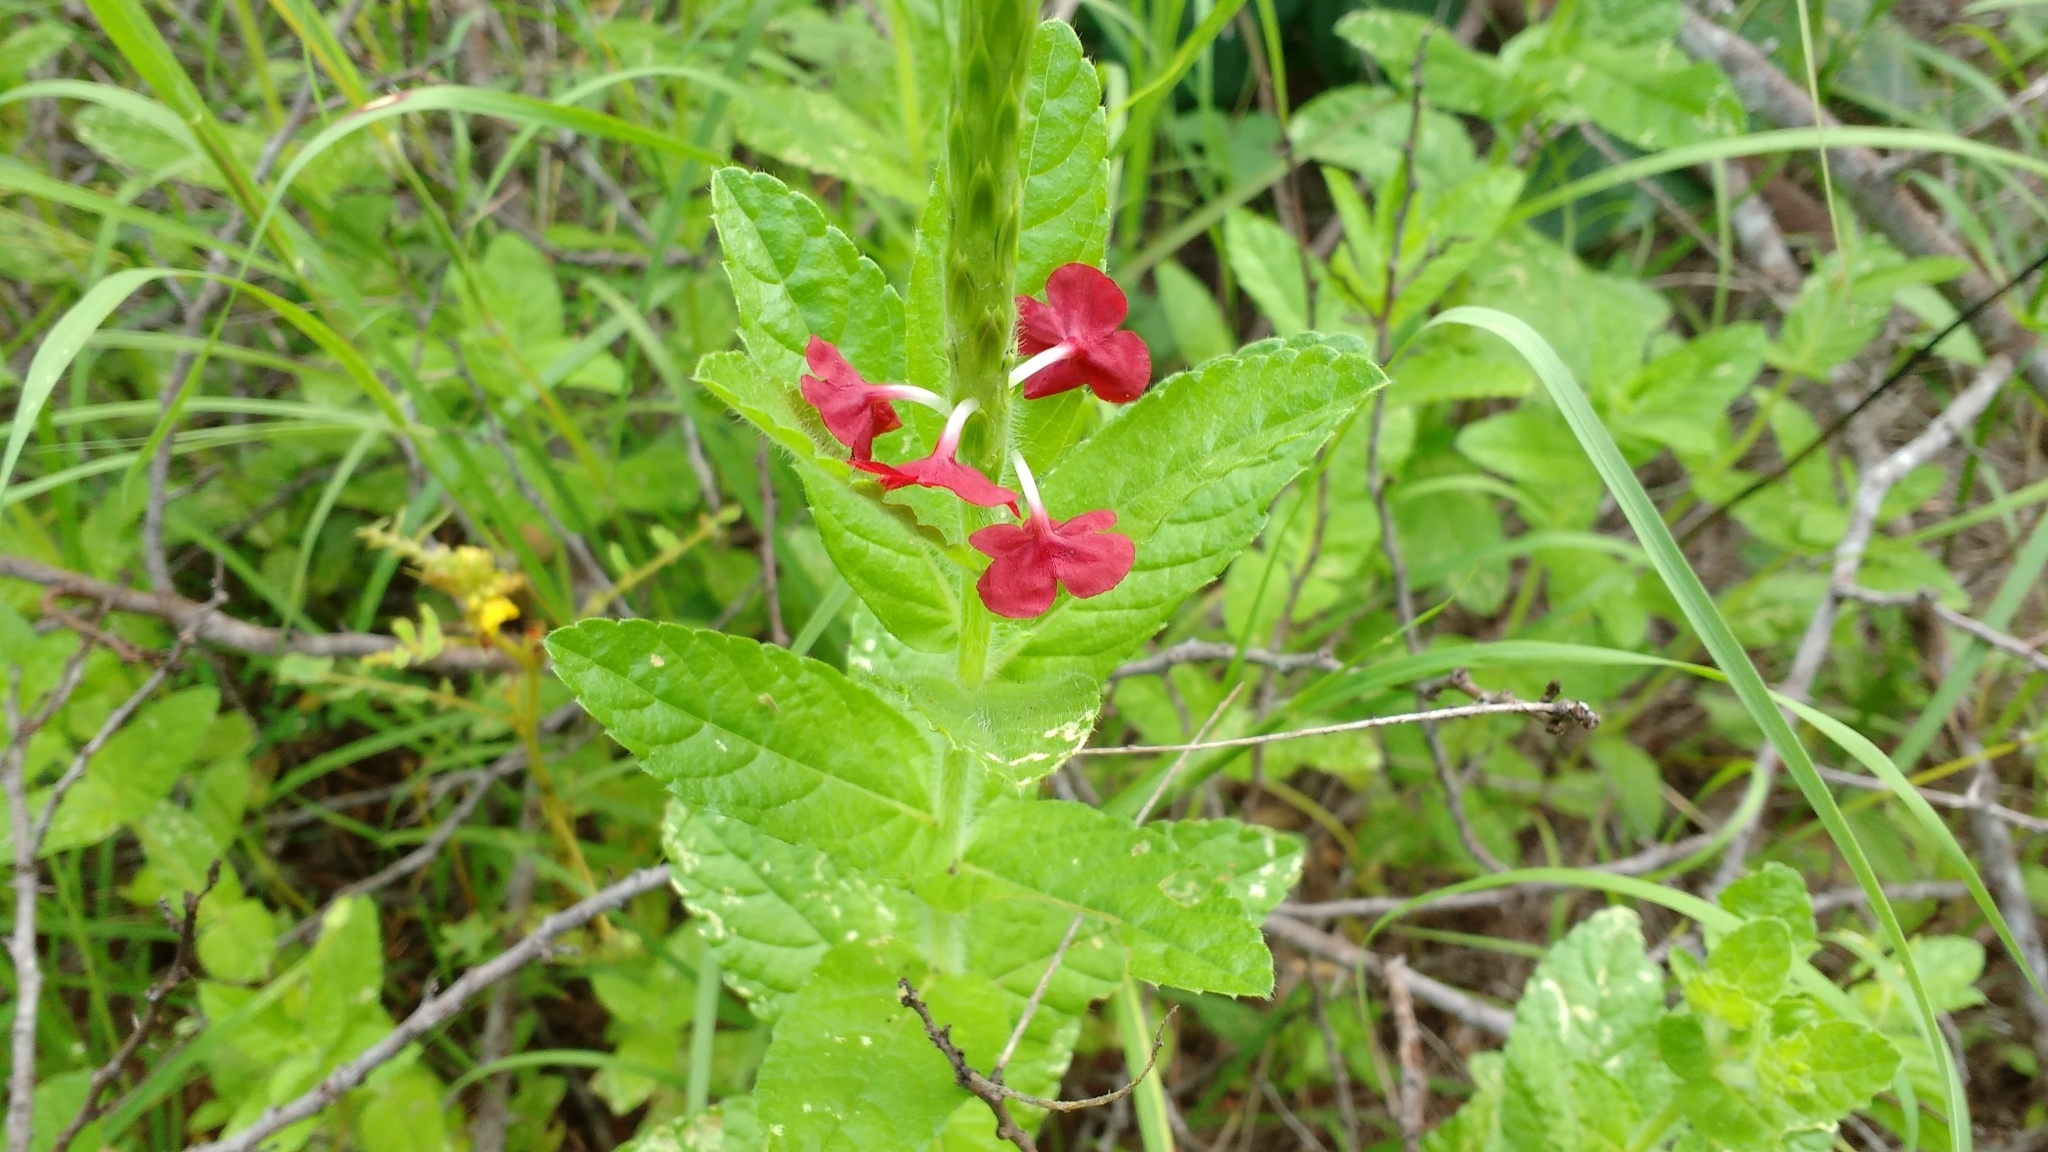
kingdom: Plantae
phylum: Tracheophyta
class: Magnoliopsida
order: Lamiales
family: Verbenaceae
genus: Stachytarpheta
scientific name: Stachytarpheta sessilis
